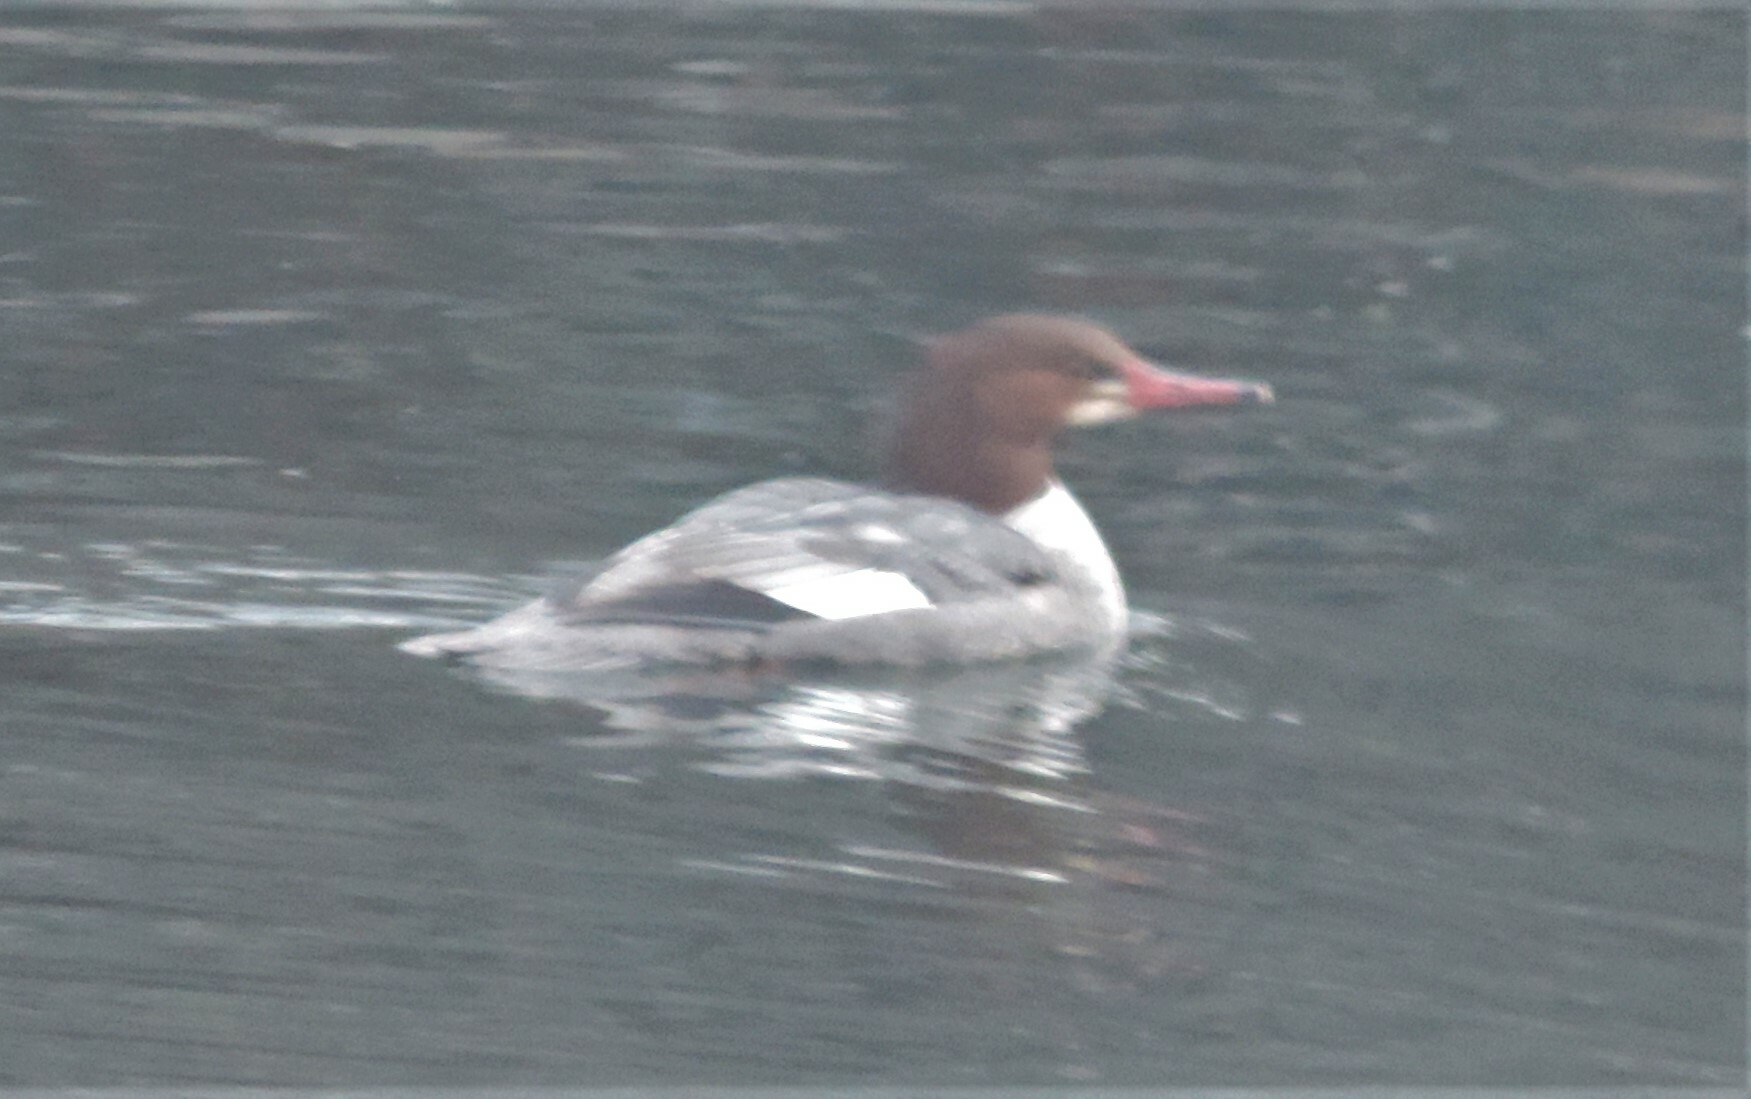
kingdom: Animalia
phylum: Chordata
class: Aves
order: Anseriformes
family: Anatidae
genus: Mergus
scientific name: Mergus merganser
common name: Common merganser
